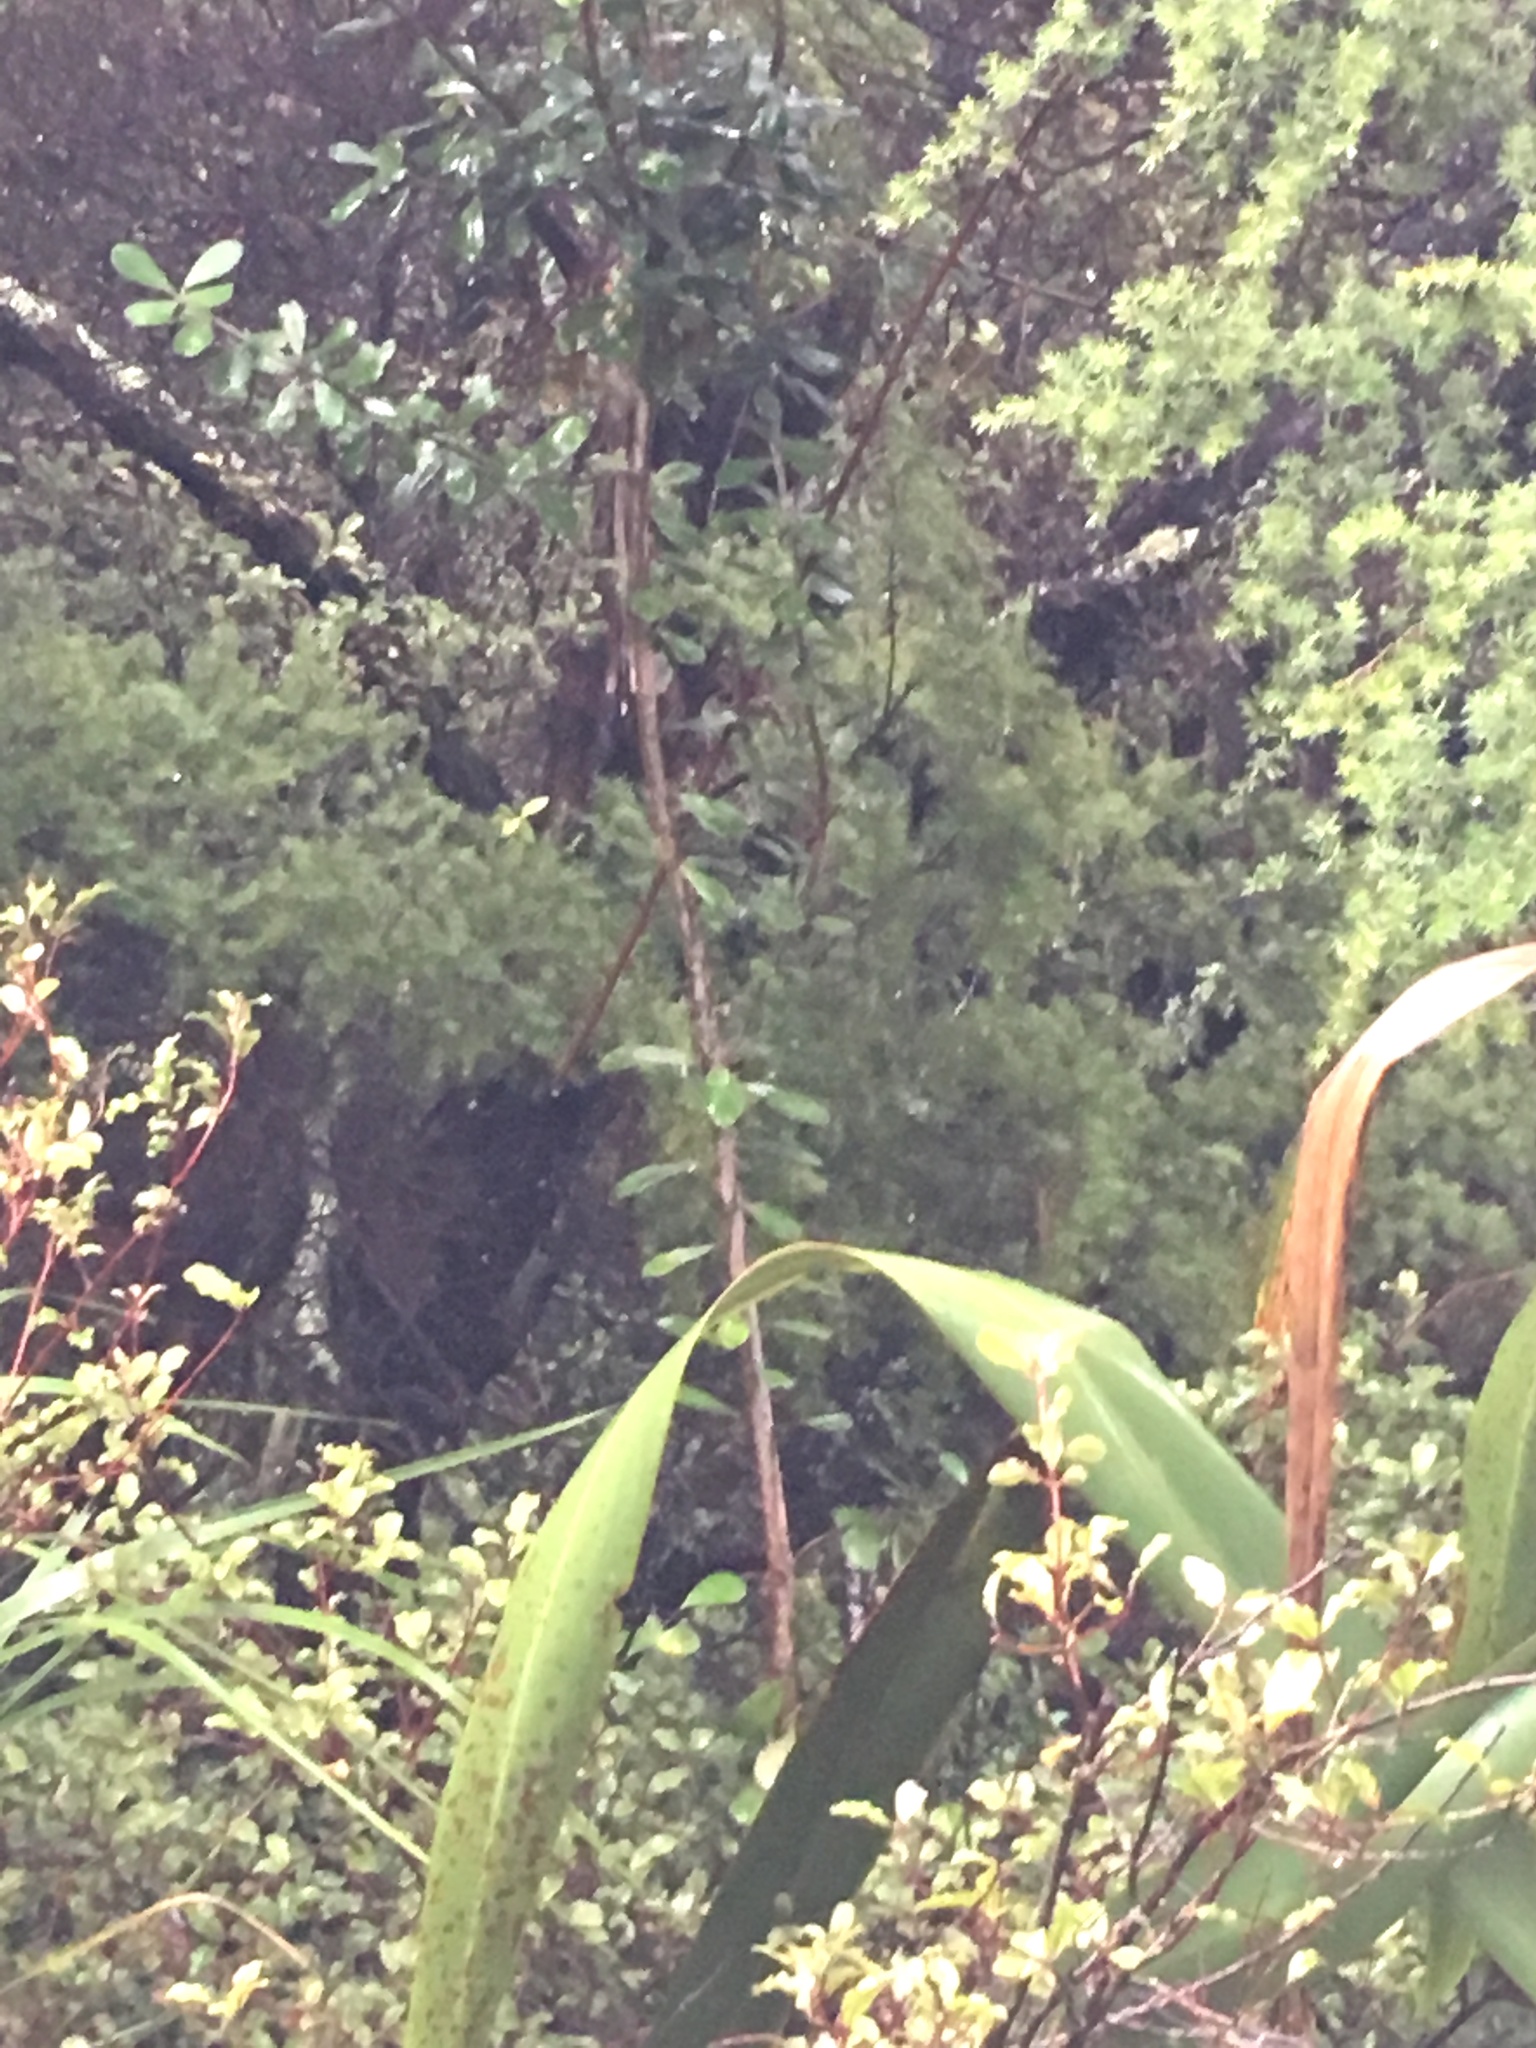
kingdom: Plantae
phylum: Tracheophyta
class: Magnoliopsida
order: Apiales
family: Pittosporaceae
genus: Pittosporum
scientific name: Pittosporum crassifolium
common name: Karo
